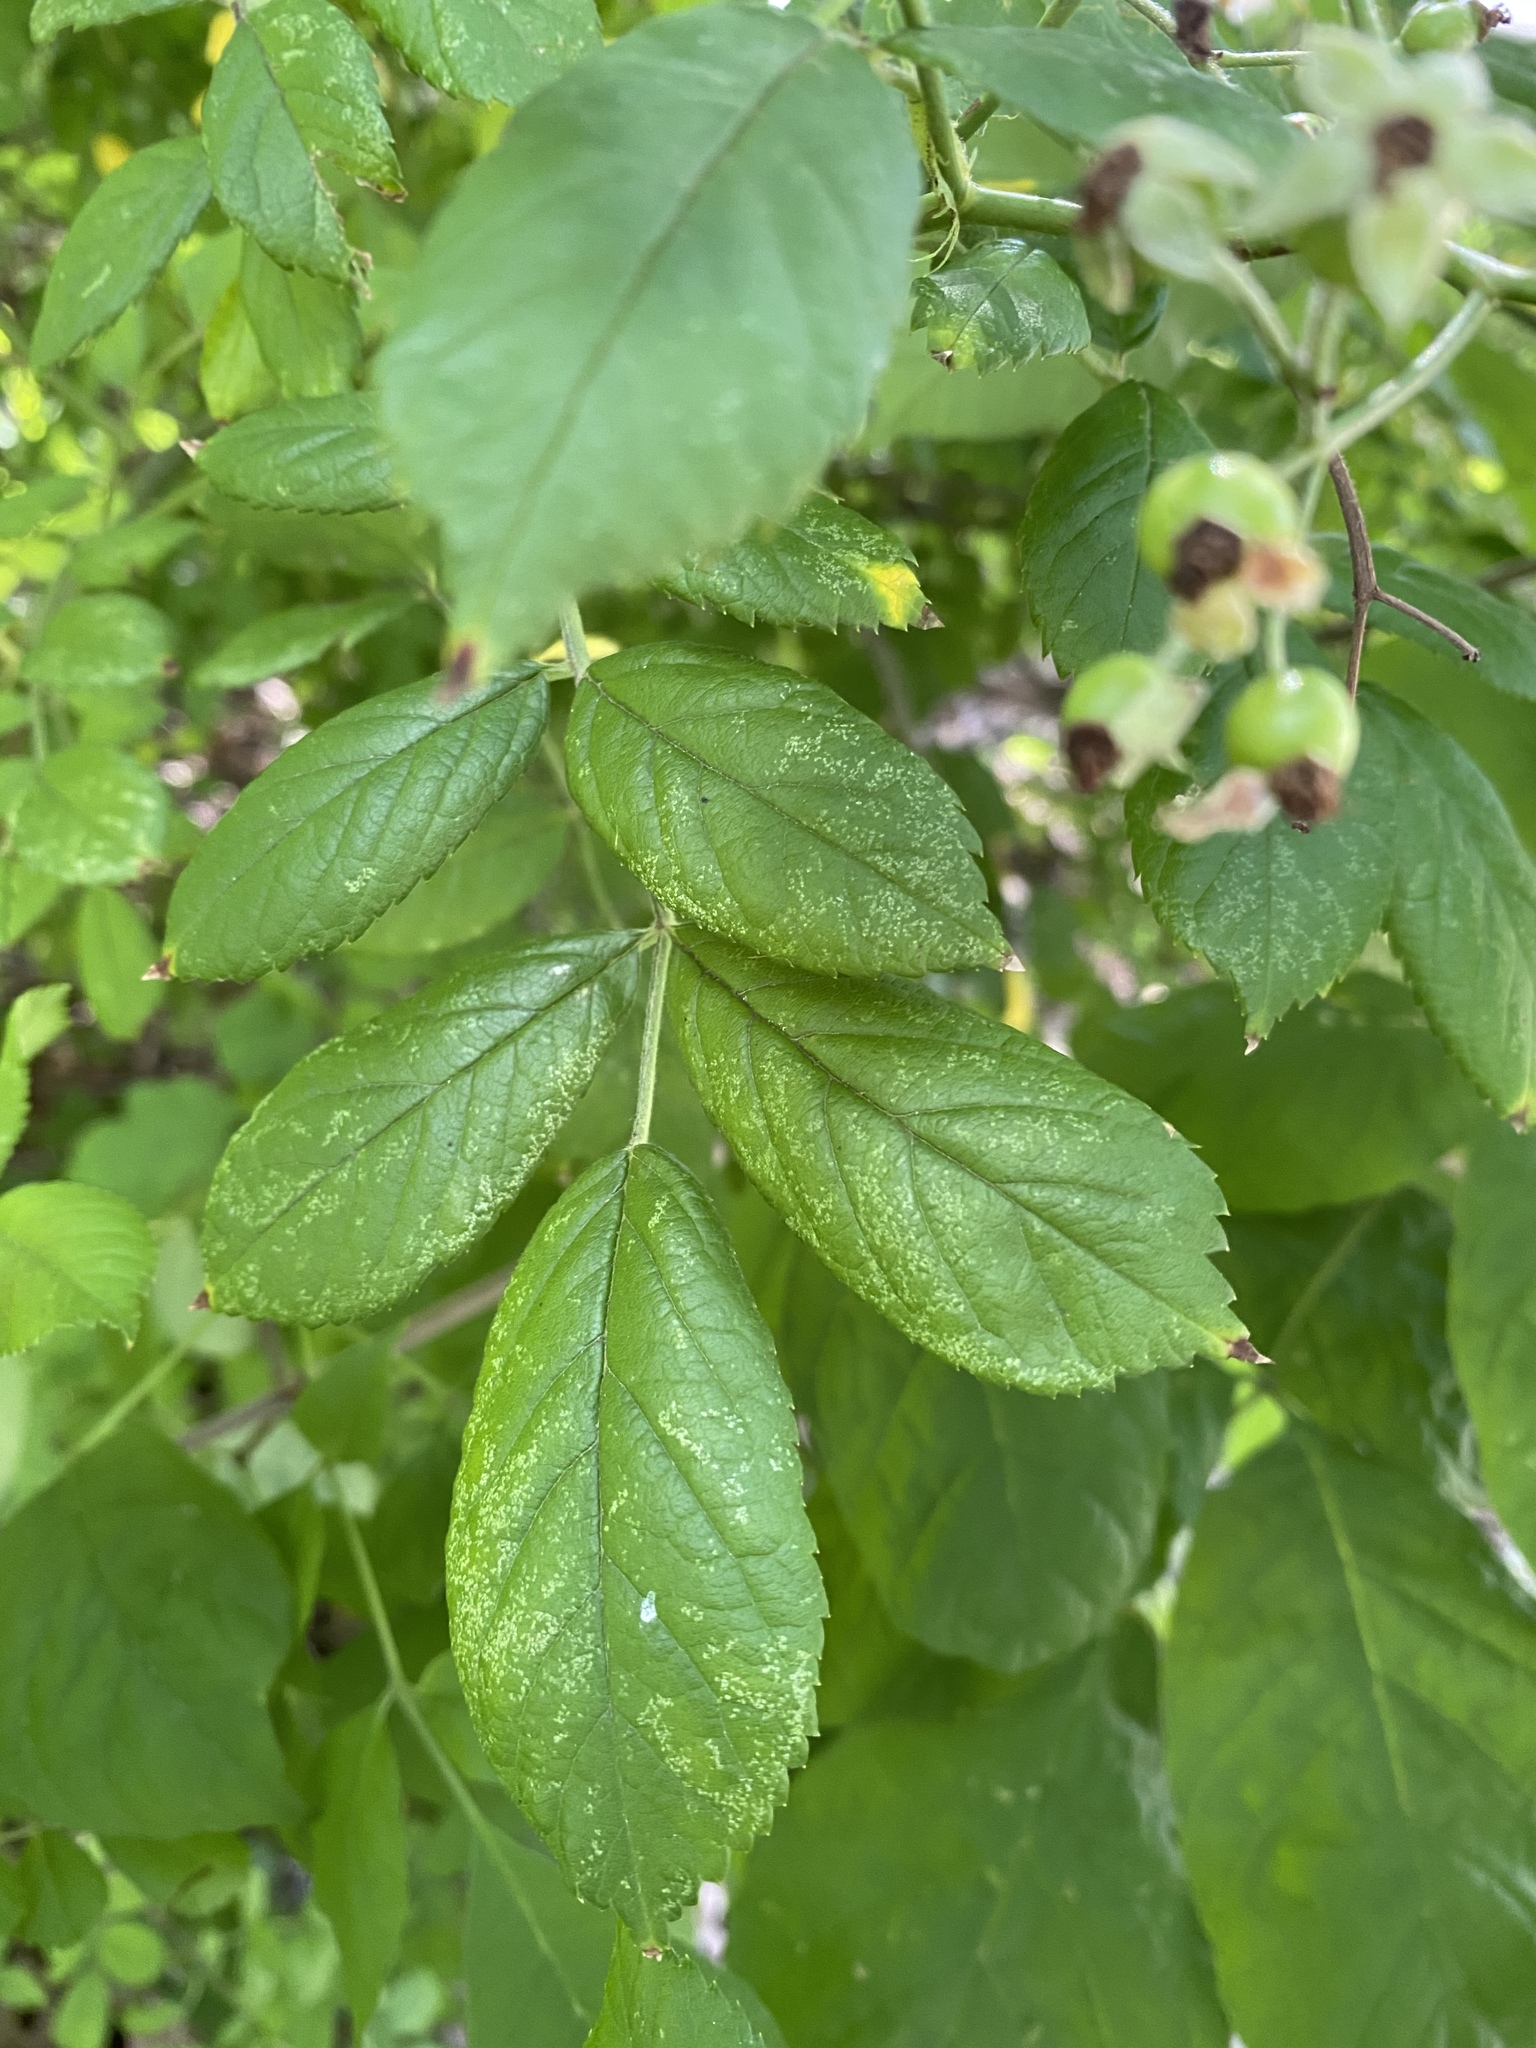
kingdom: Plantae
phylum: Tracheophyta
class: Magnoliopsida
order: Rosales
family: Rosaceae
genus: Rosa
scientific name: Rosa multiflora
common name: Multiflora rose
